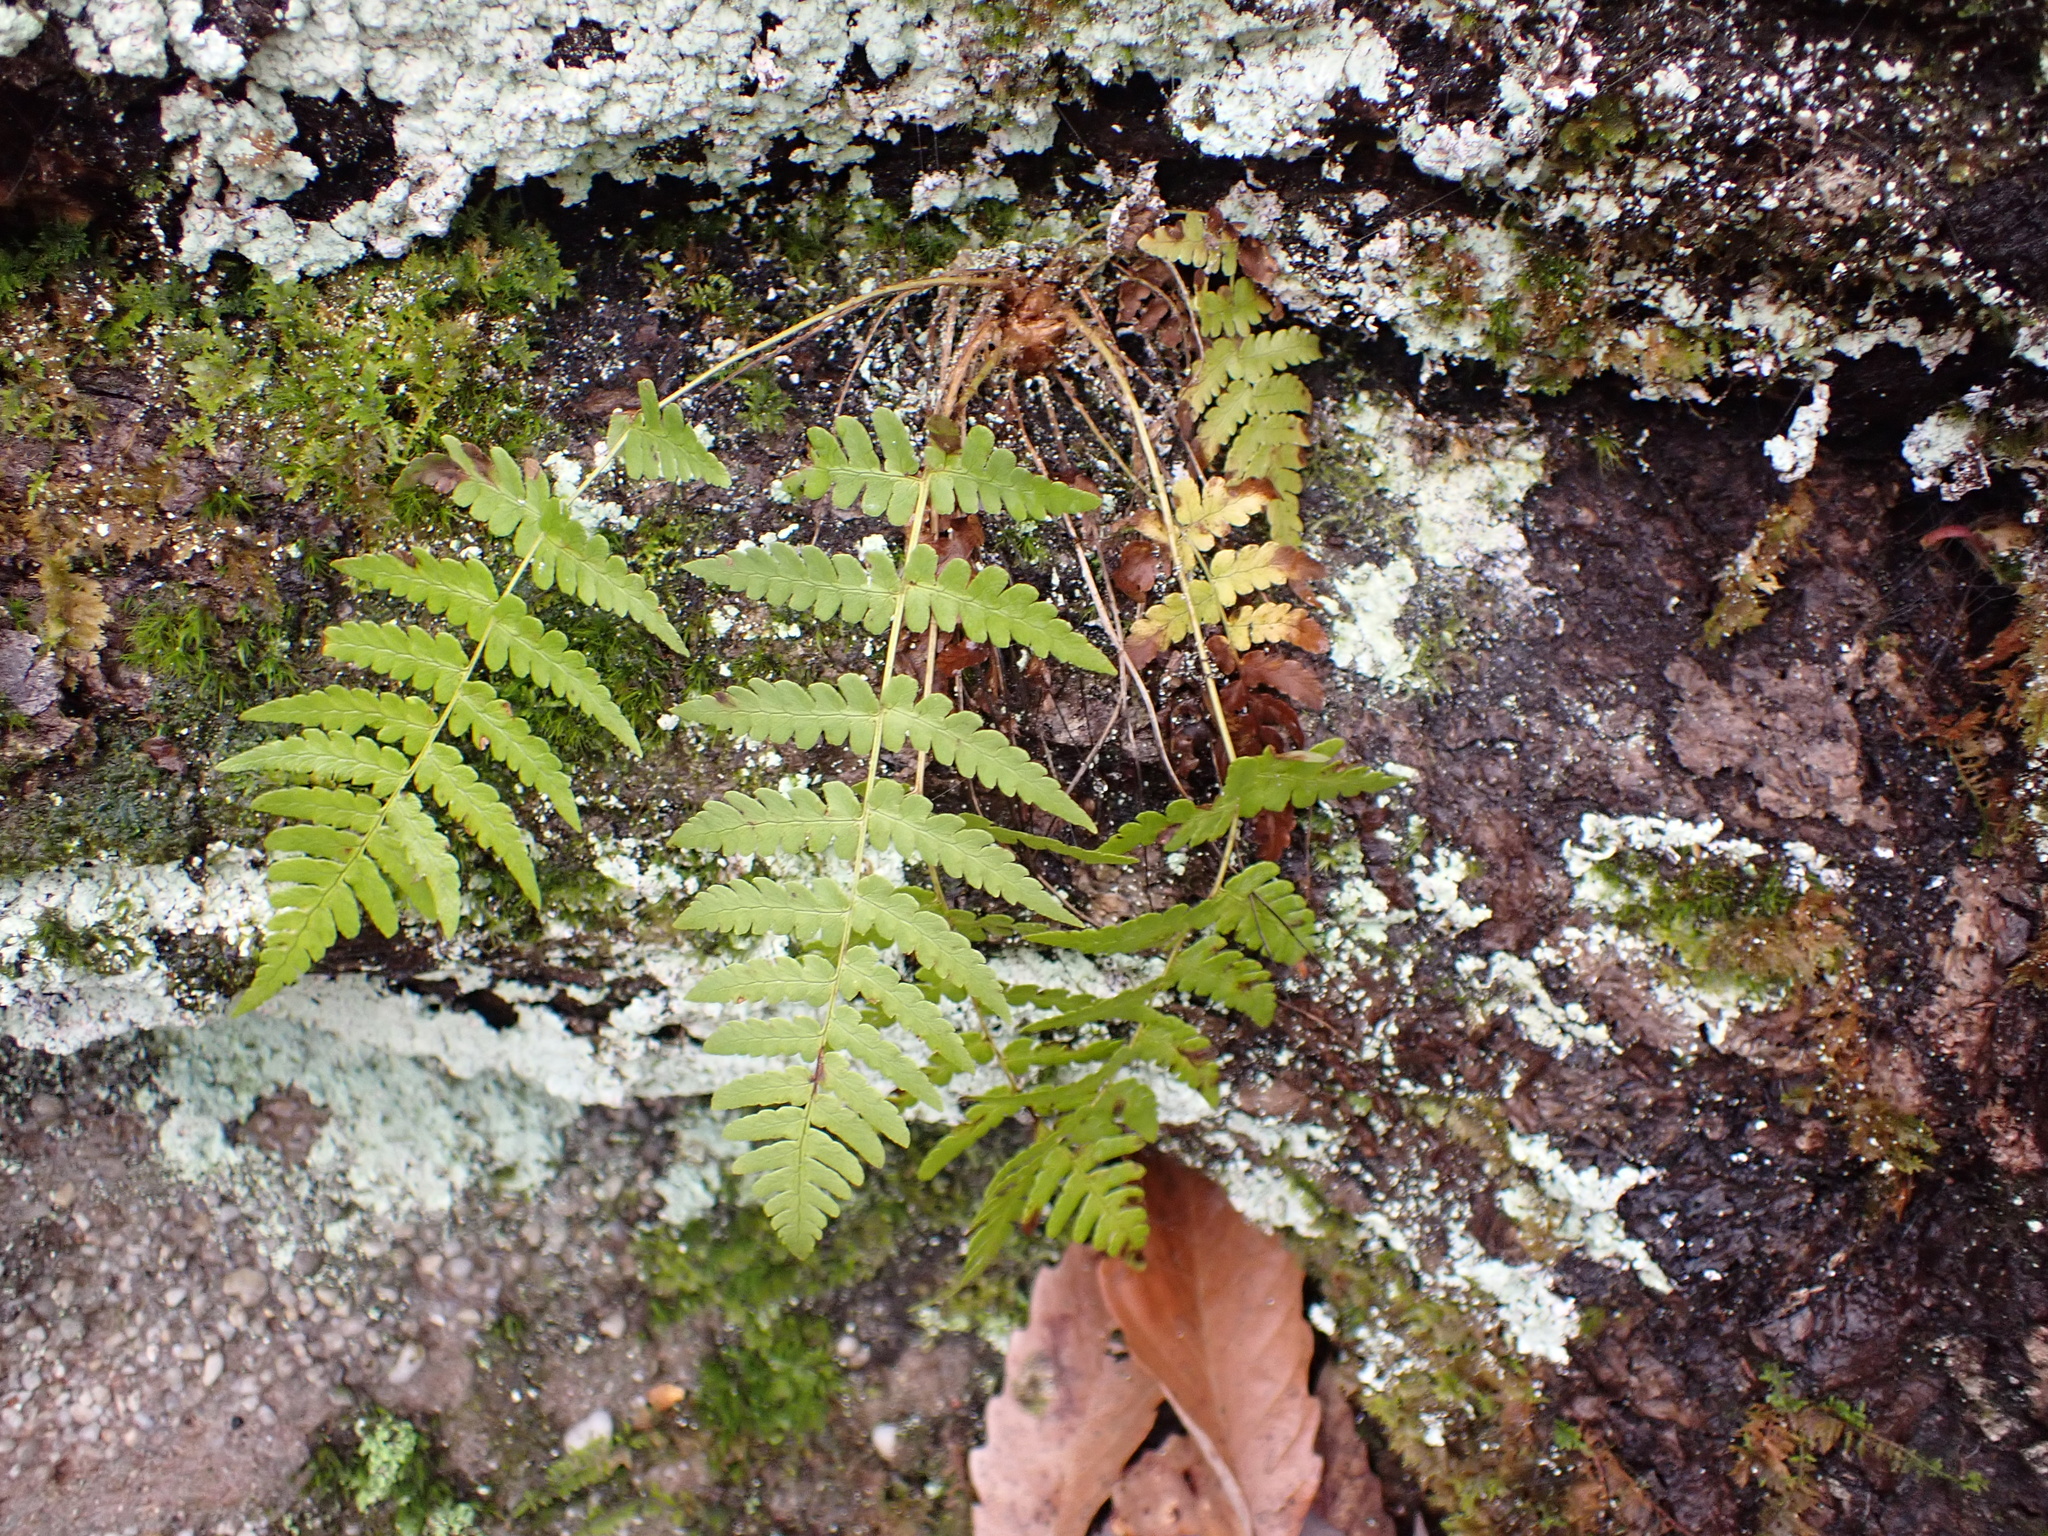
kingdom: Plantae
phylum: Tracheophyta
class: Polypodiopsida
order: Polypodiales
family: Dryopteridaceae
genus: Dryopteris
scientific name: Dryopteris marginalis
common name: Marginal wood fern
